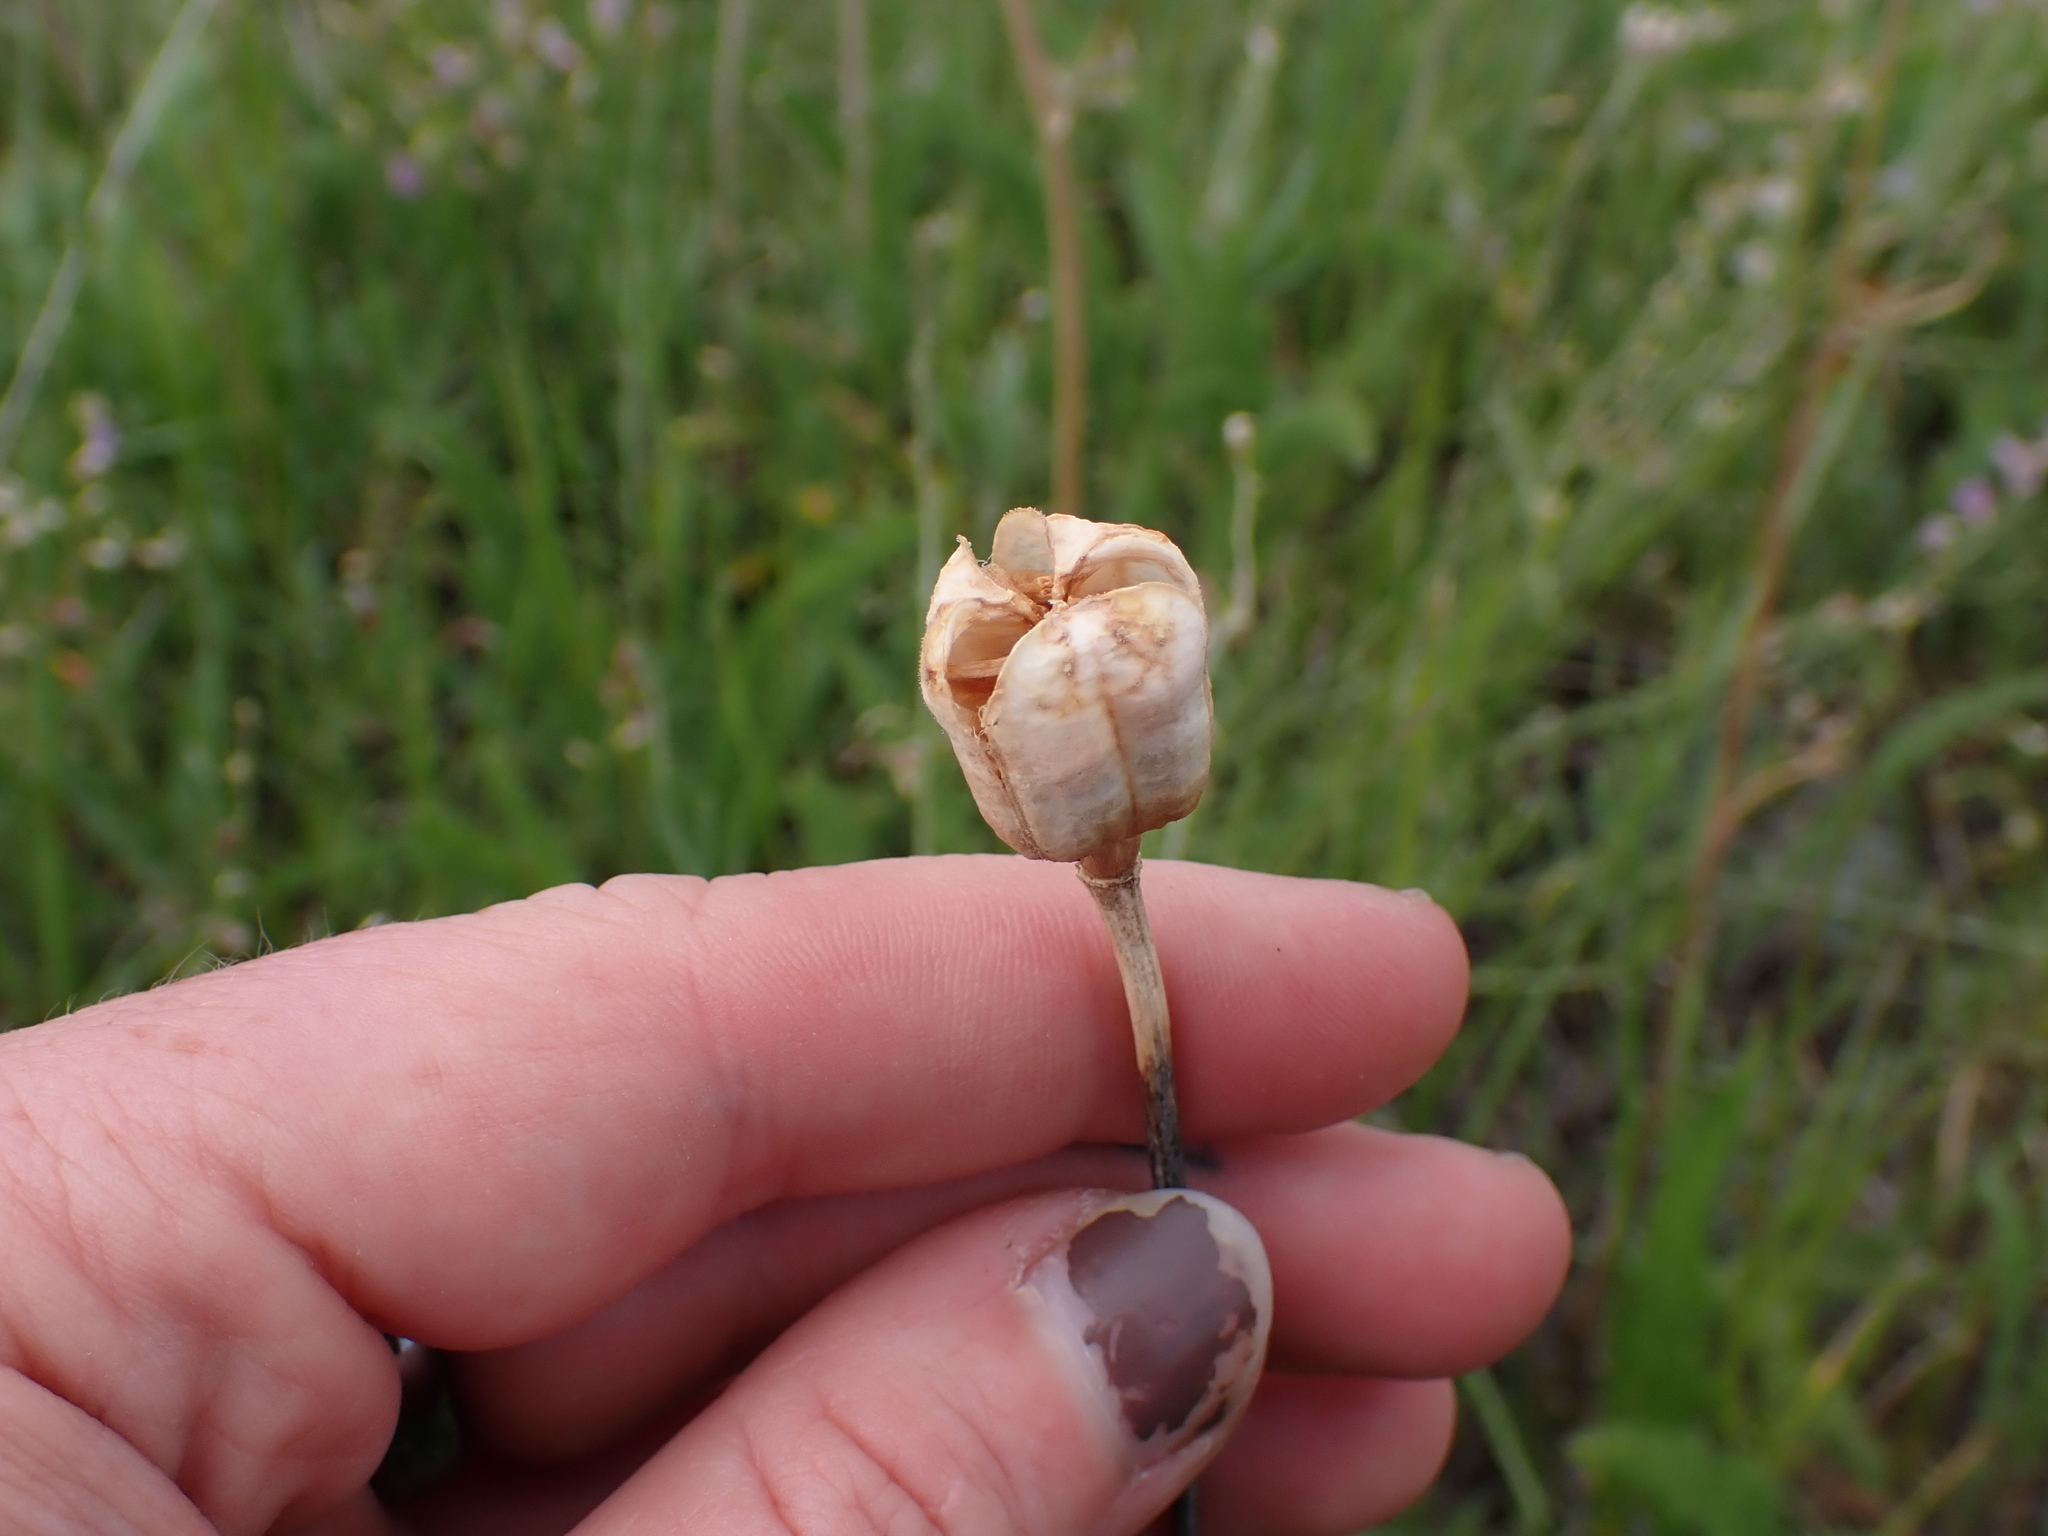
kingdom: Plantae
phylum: Tracheophyta
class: Liliopsida
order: Liliales
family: Liliaceae
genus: Fritillaria
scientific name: Fritillaria pudica
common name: Yellow fritillary
